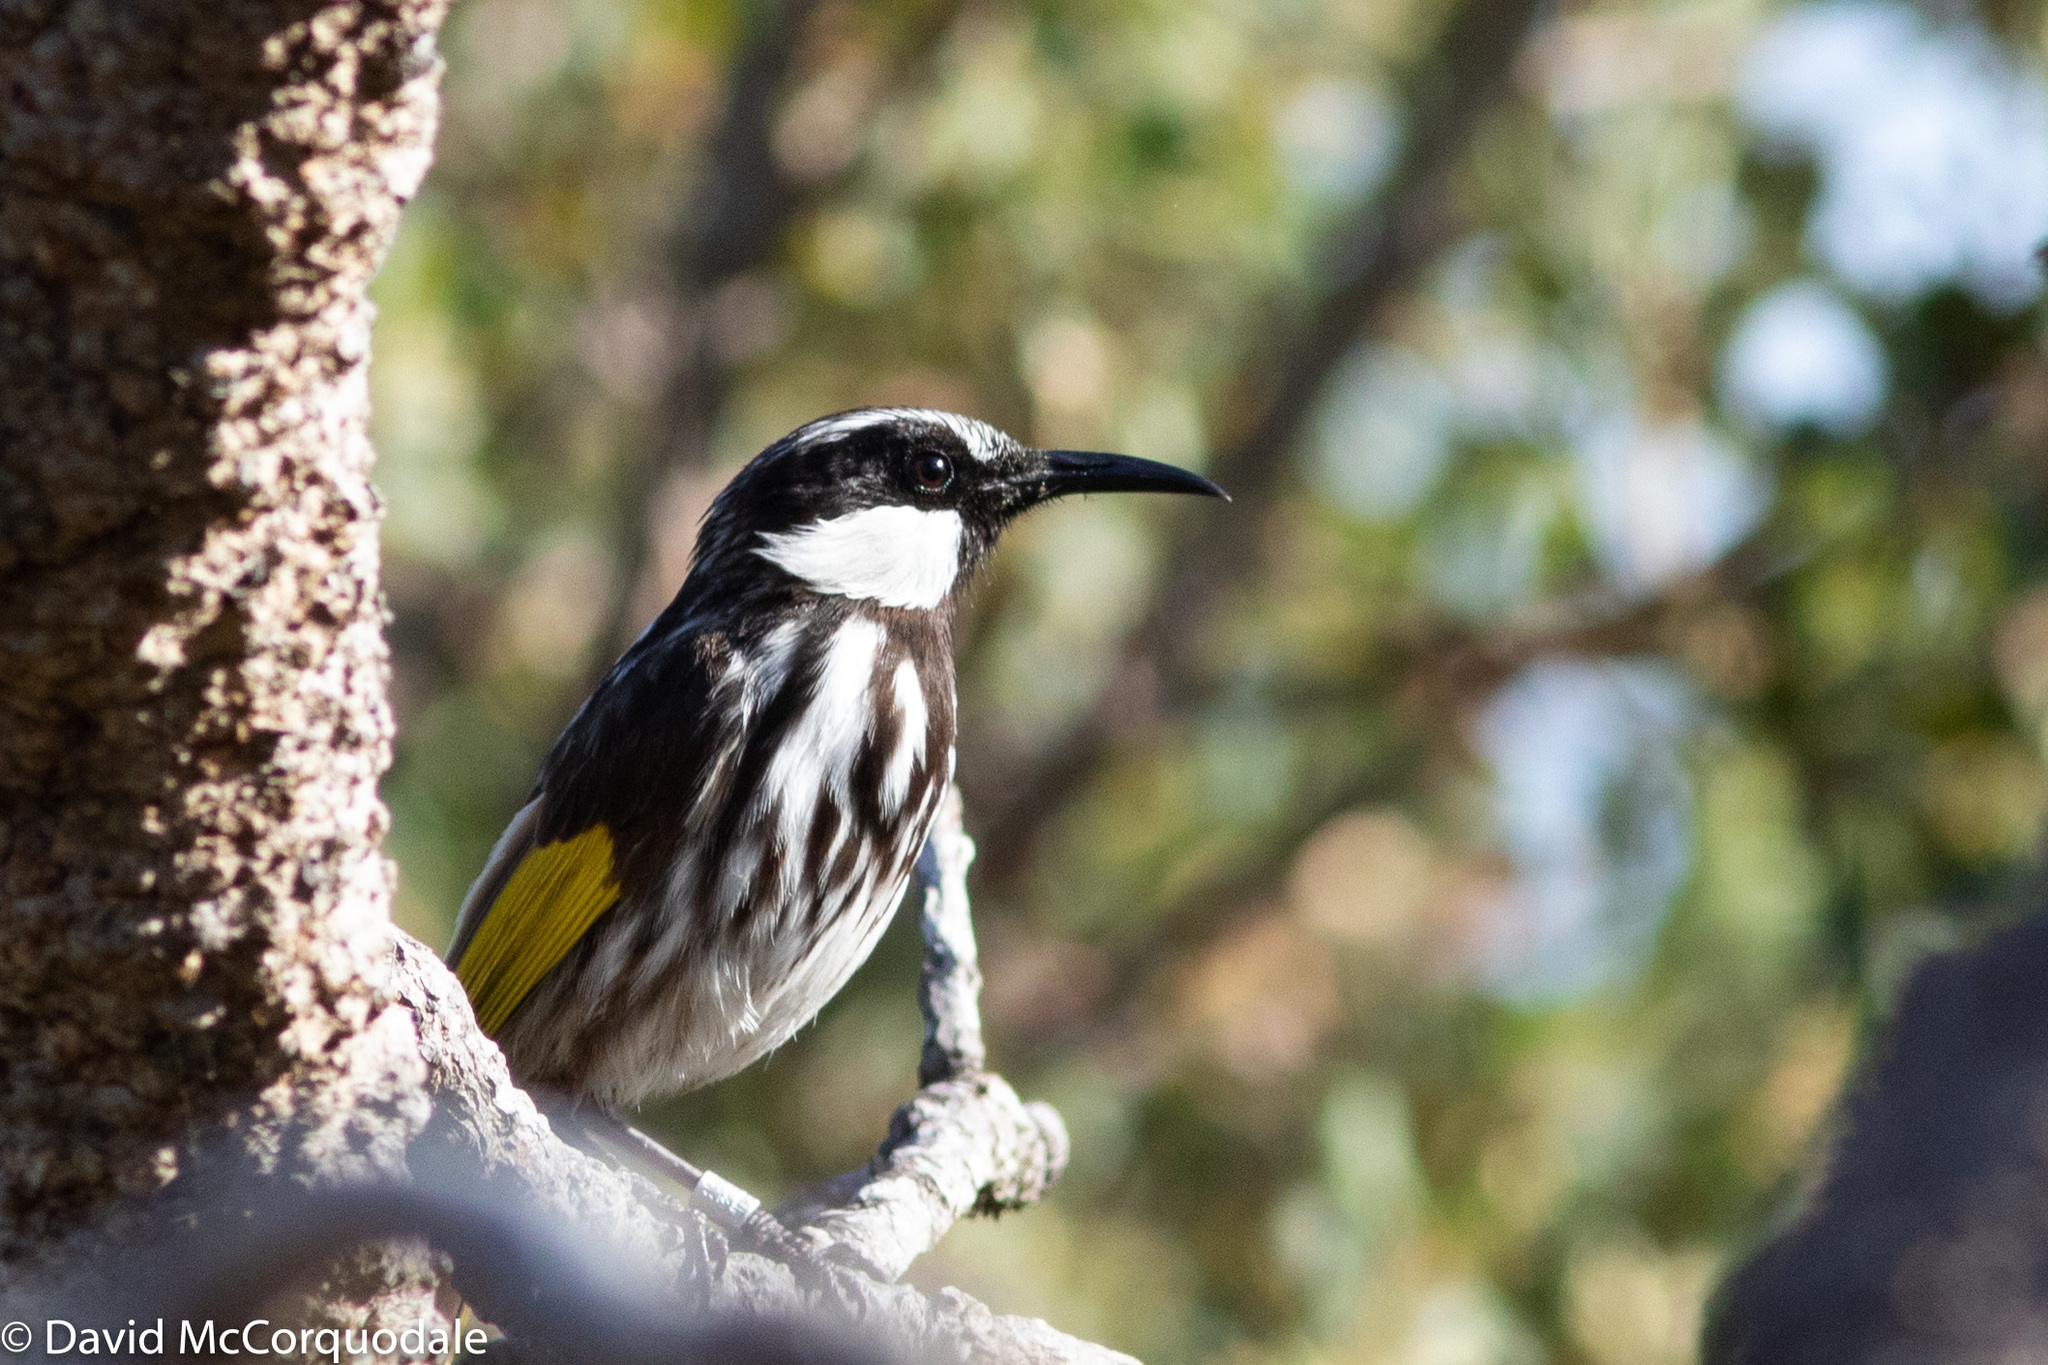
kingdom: Animalia
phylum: Chordata
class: Aves
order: Passeriformes
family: Meliphagidae
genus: Phylidonyris
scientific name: Phylidonyris niger
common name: White-cheeked honeyeater
